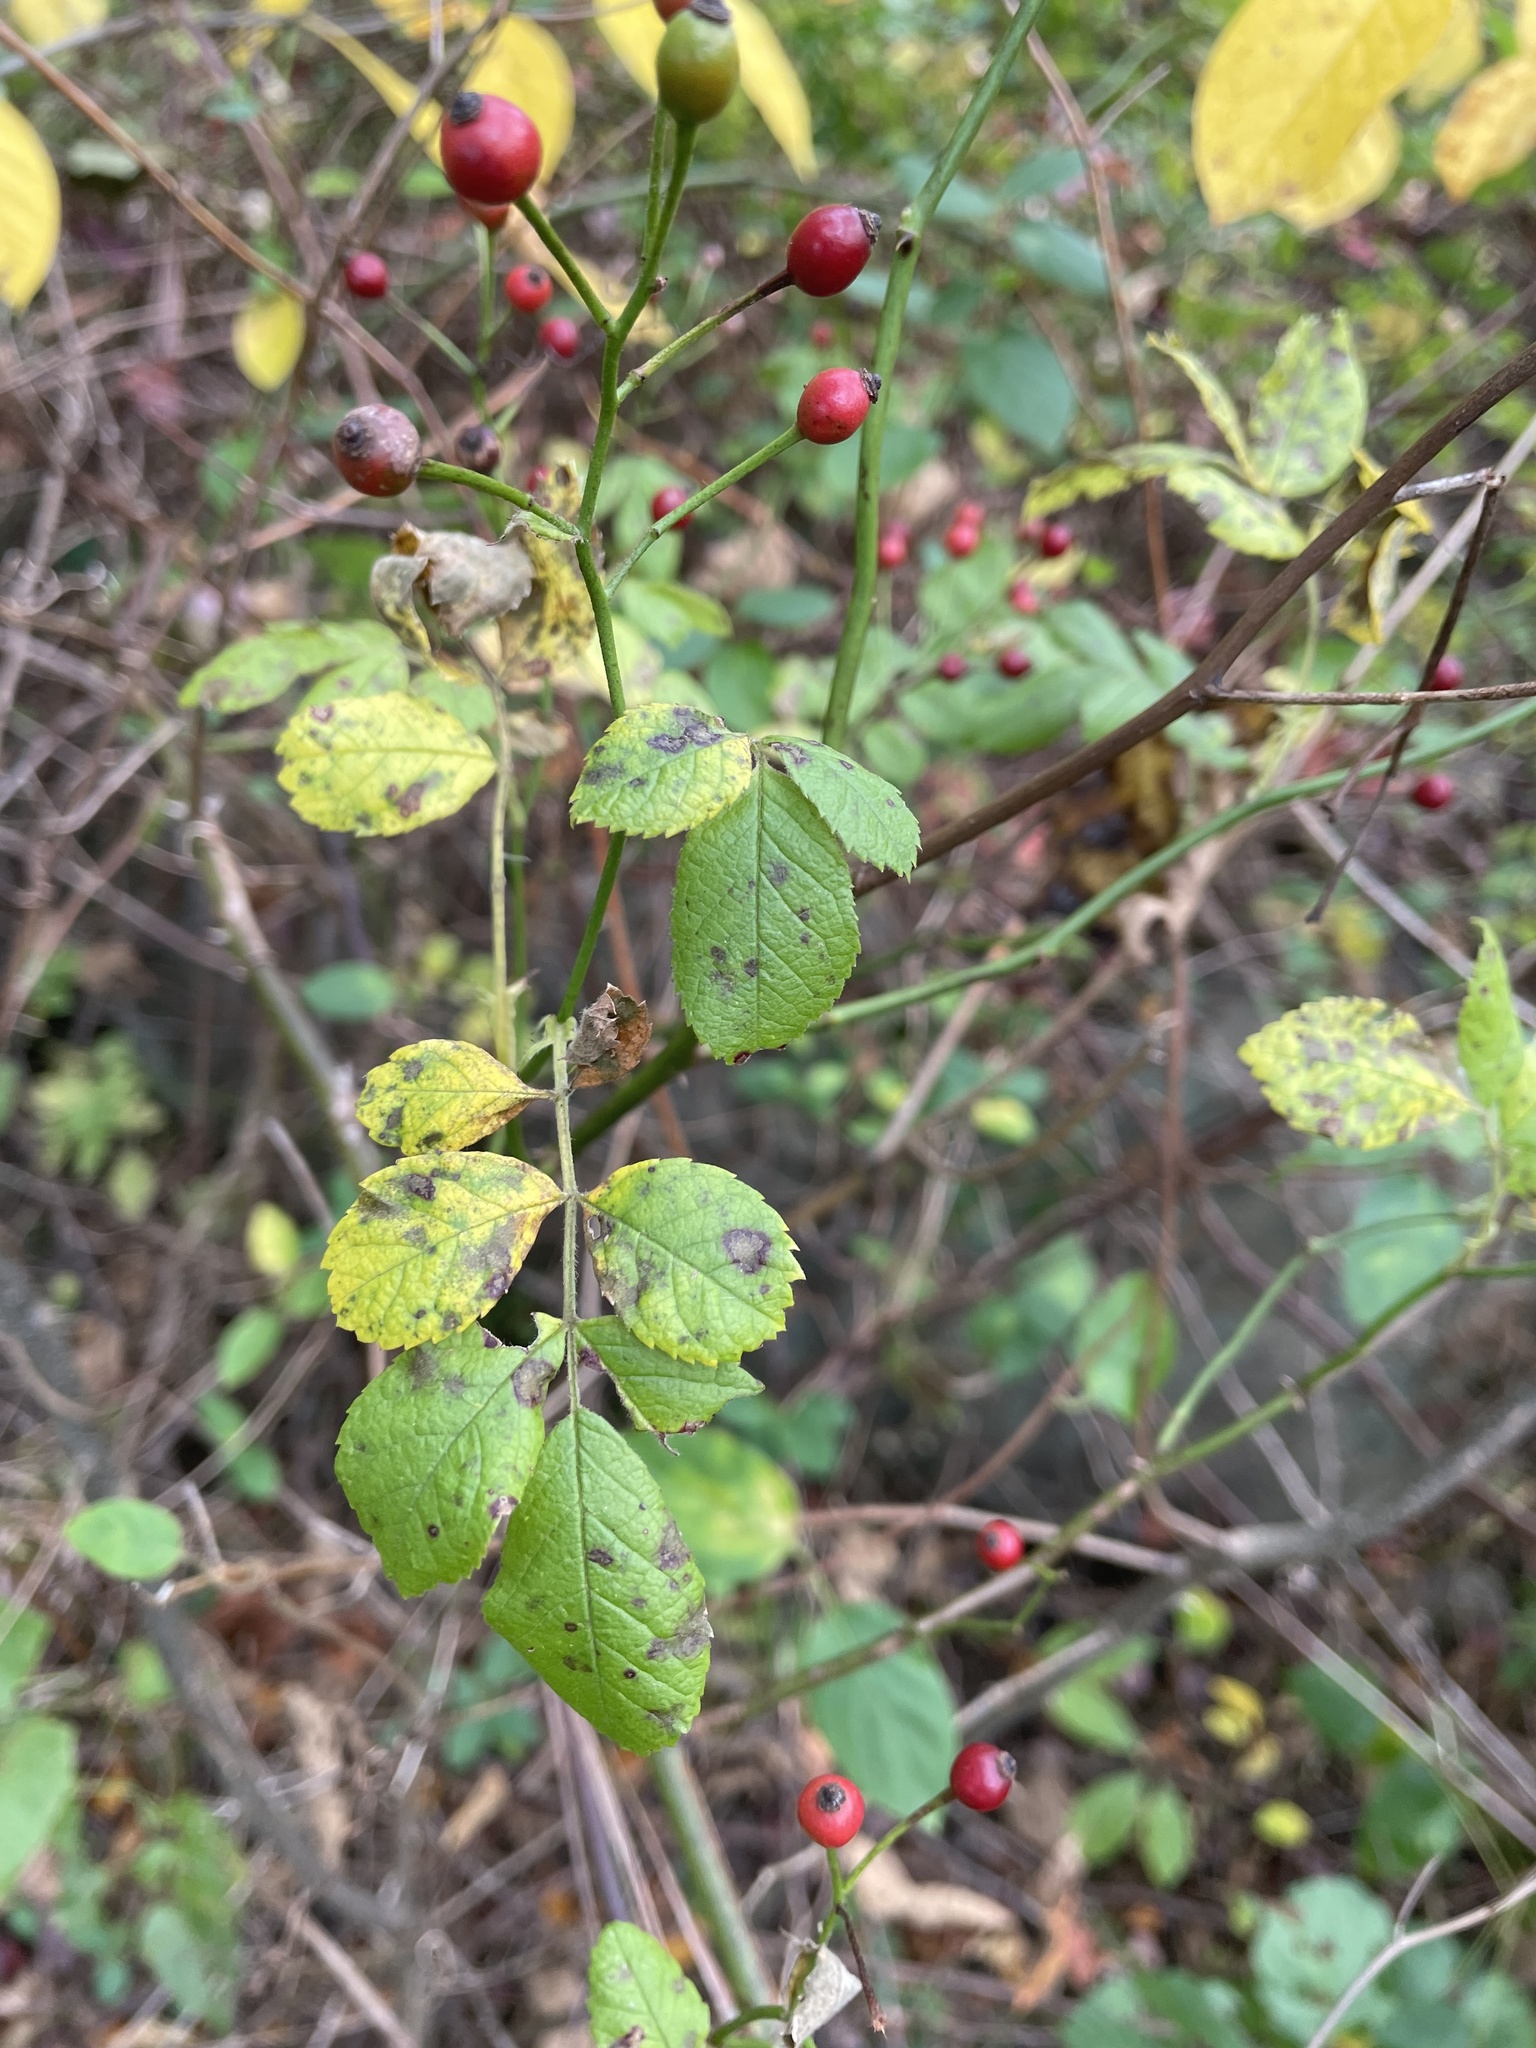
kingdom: Plantae
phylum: Tracheophyta
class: Magnoliopsida
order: Rosales
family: Rosaceae
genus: Rosa
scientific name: Rosa multiflora
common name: Multiflora rose
